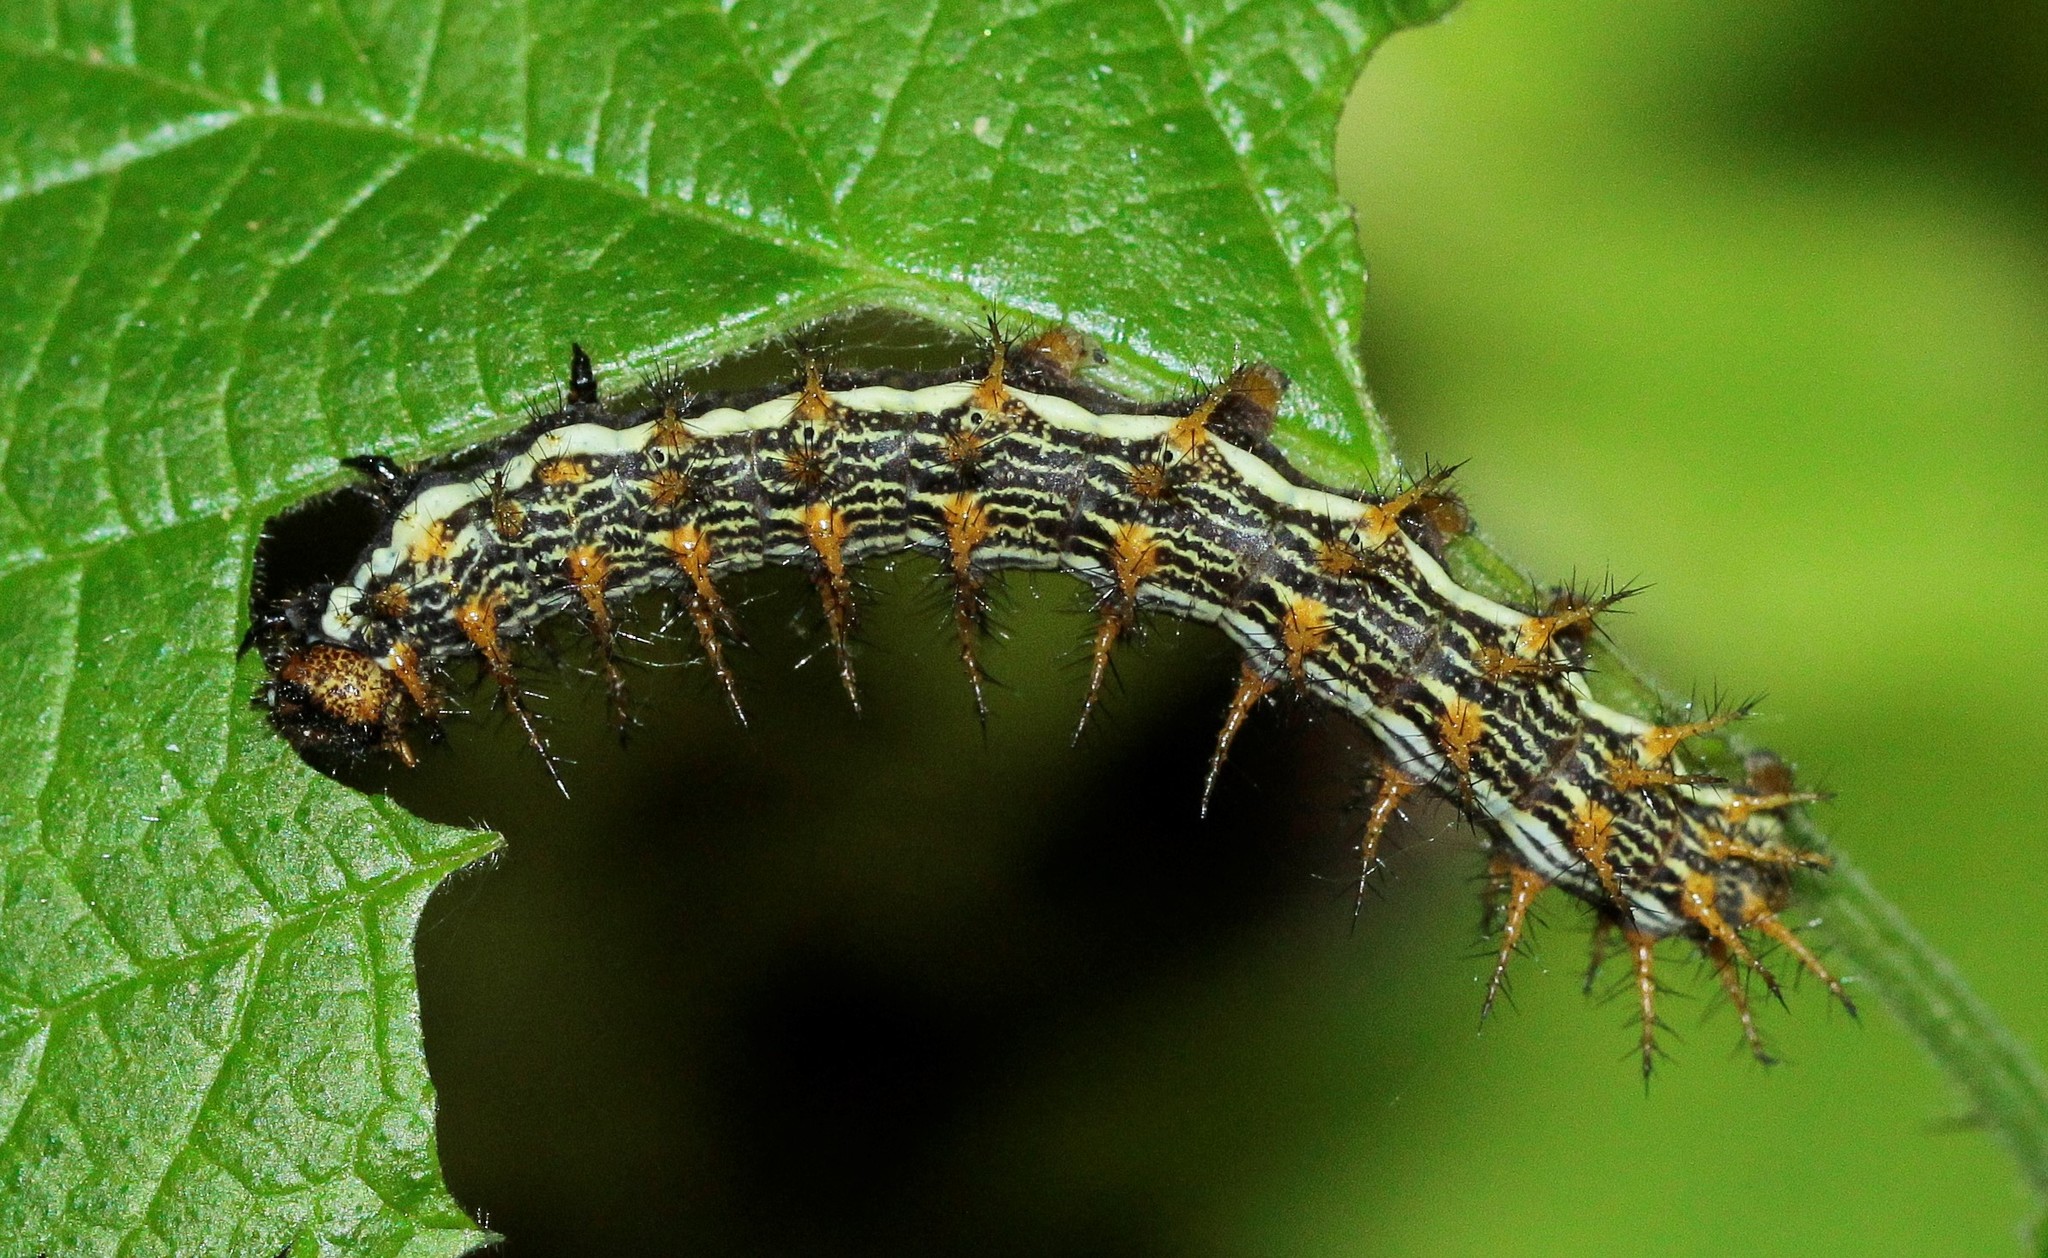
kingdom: Animalia
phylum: Arthropoda
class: Insecta
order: Lepidoptera
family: Nymphalidae
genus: Brenthis
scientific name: Brenthis daphne
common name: Marbled fritillary
